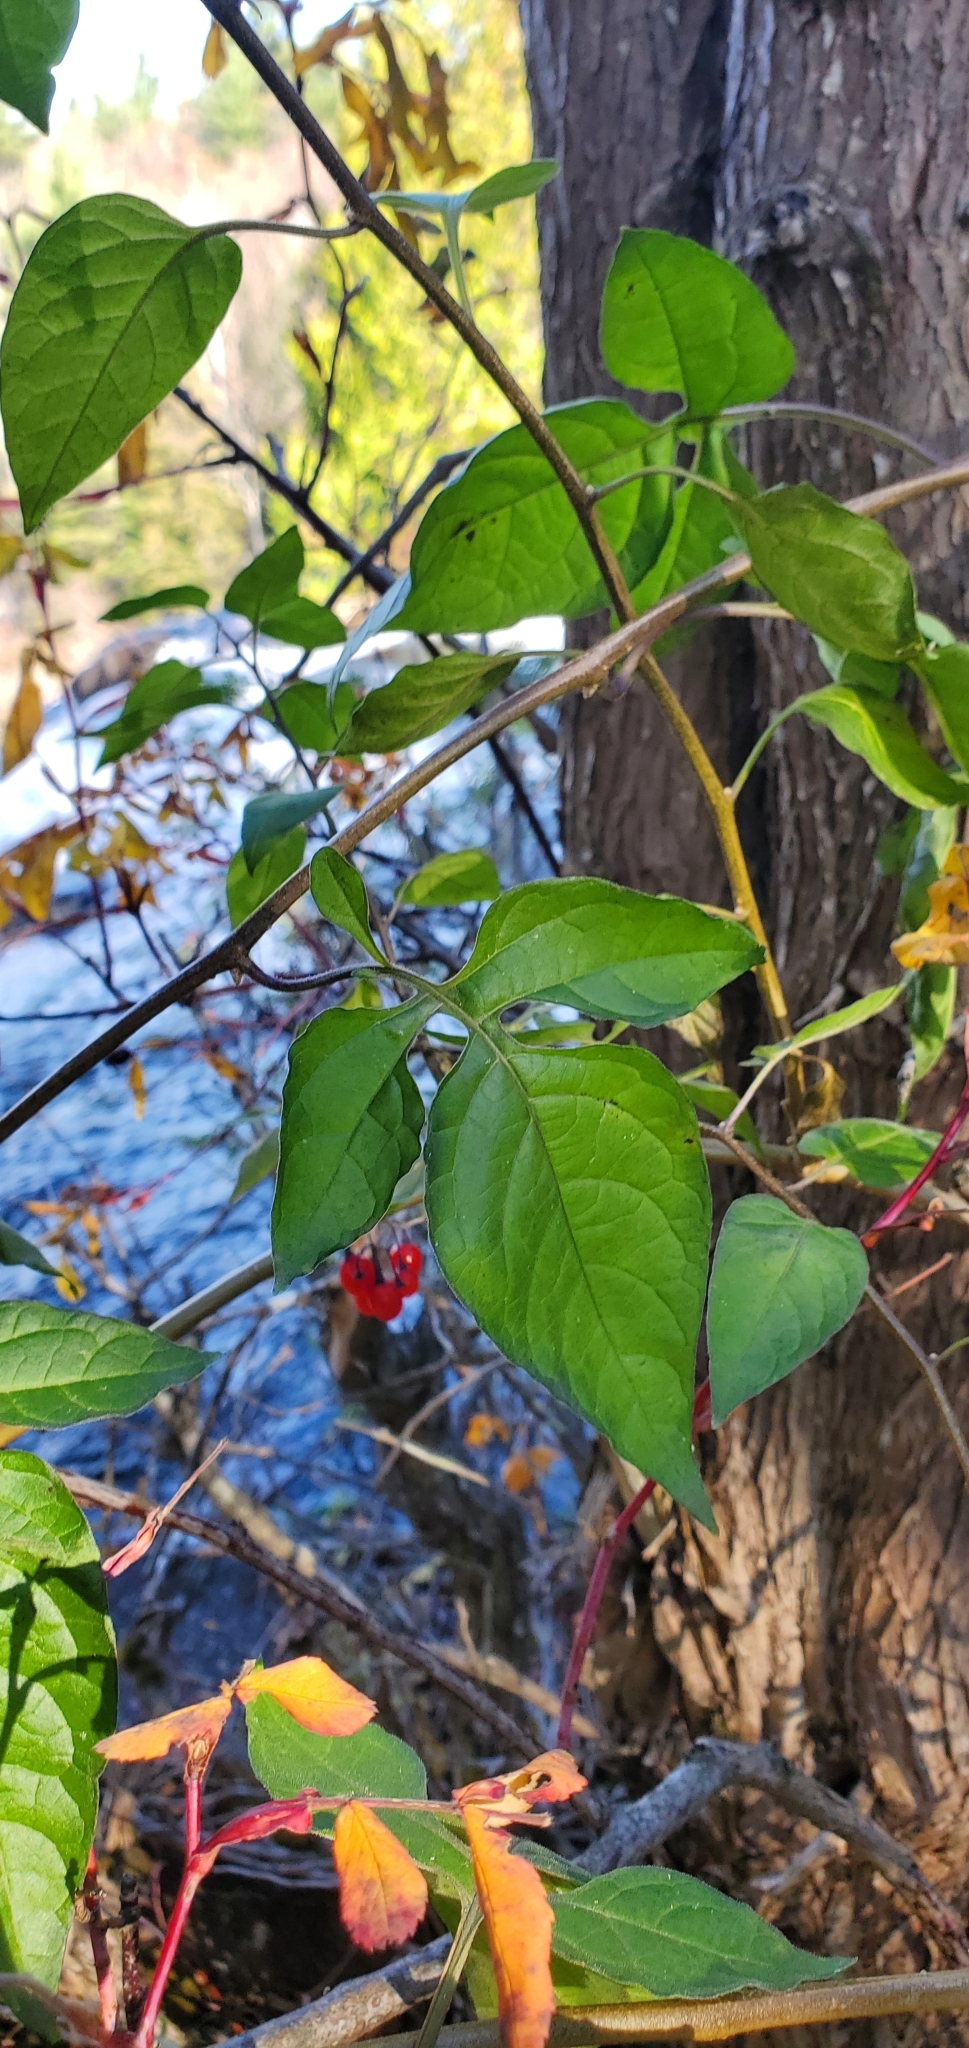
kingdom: Plantae
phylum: Tracheophyta
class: Magnoliopsida
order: Solanales
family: Solanaceae
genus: Solanum
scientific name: Solanum dulcamara
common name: Climbing nightshade
